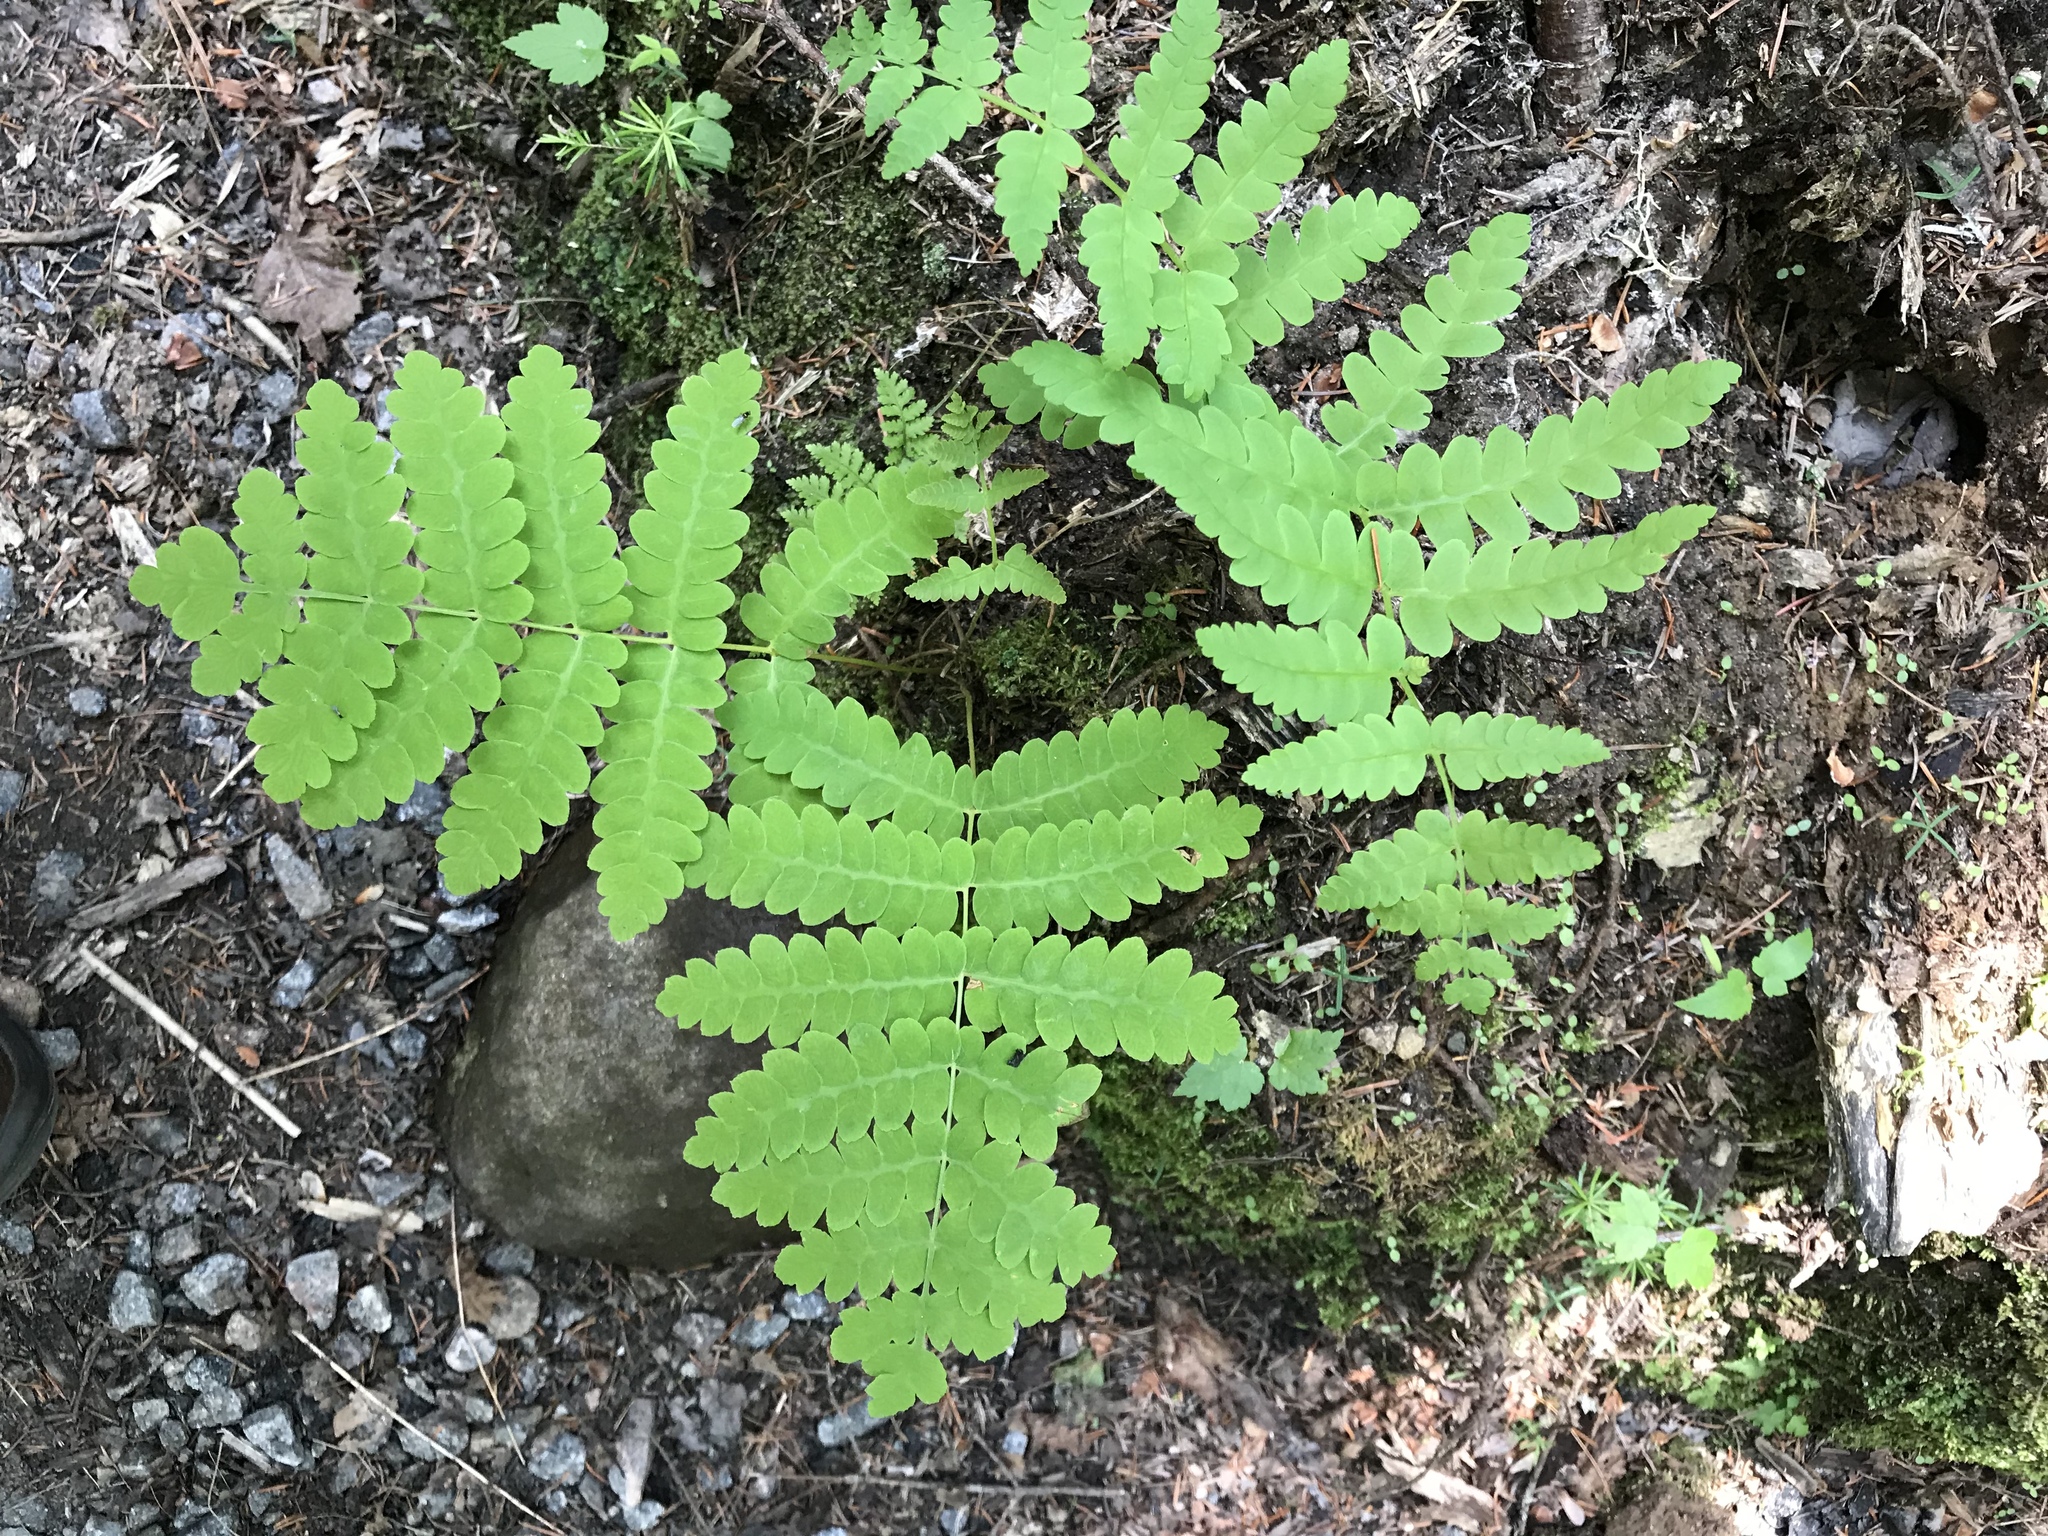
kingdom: Plantae
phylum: Tracheophyta
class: Polypodiopsida
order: Osmundales
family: Osmundaceae
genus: Claytosmunda
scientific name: Claytosmunda claytoniana
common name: Clayton's fern
